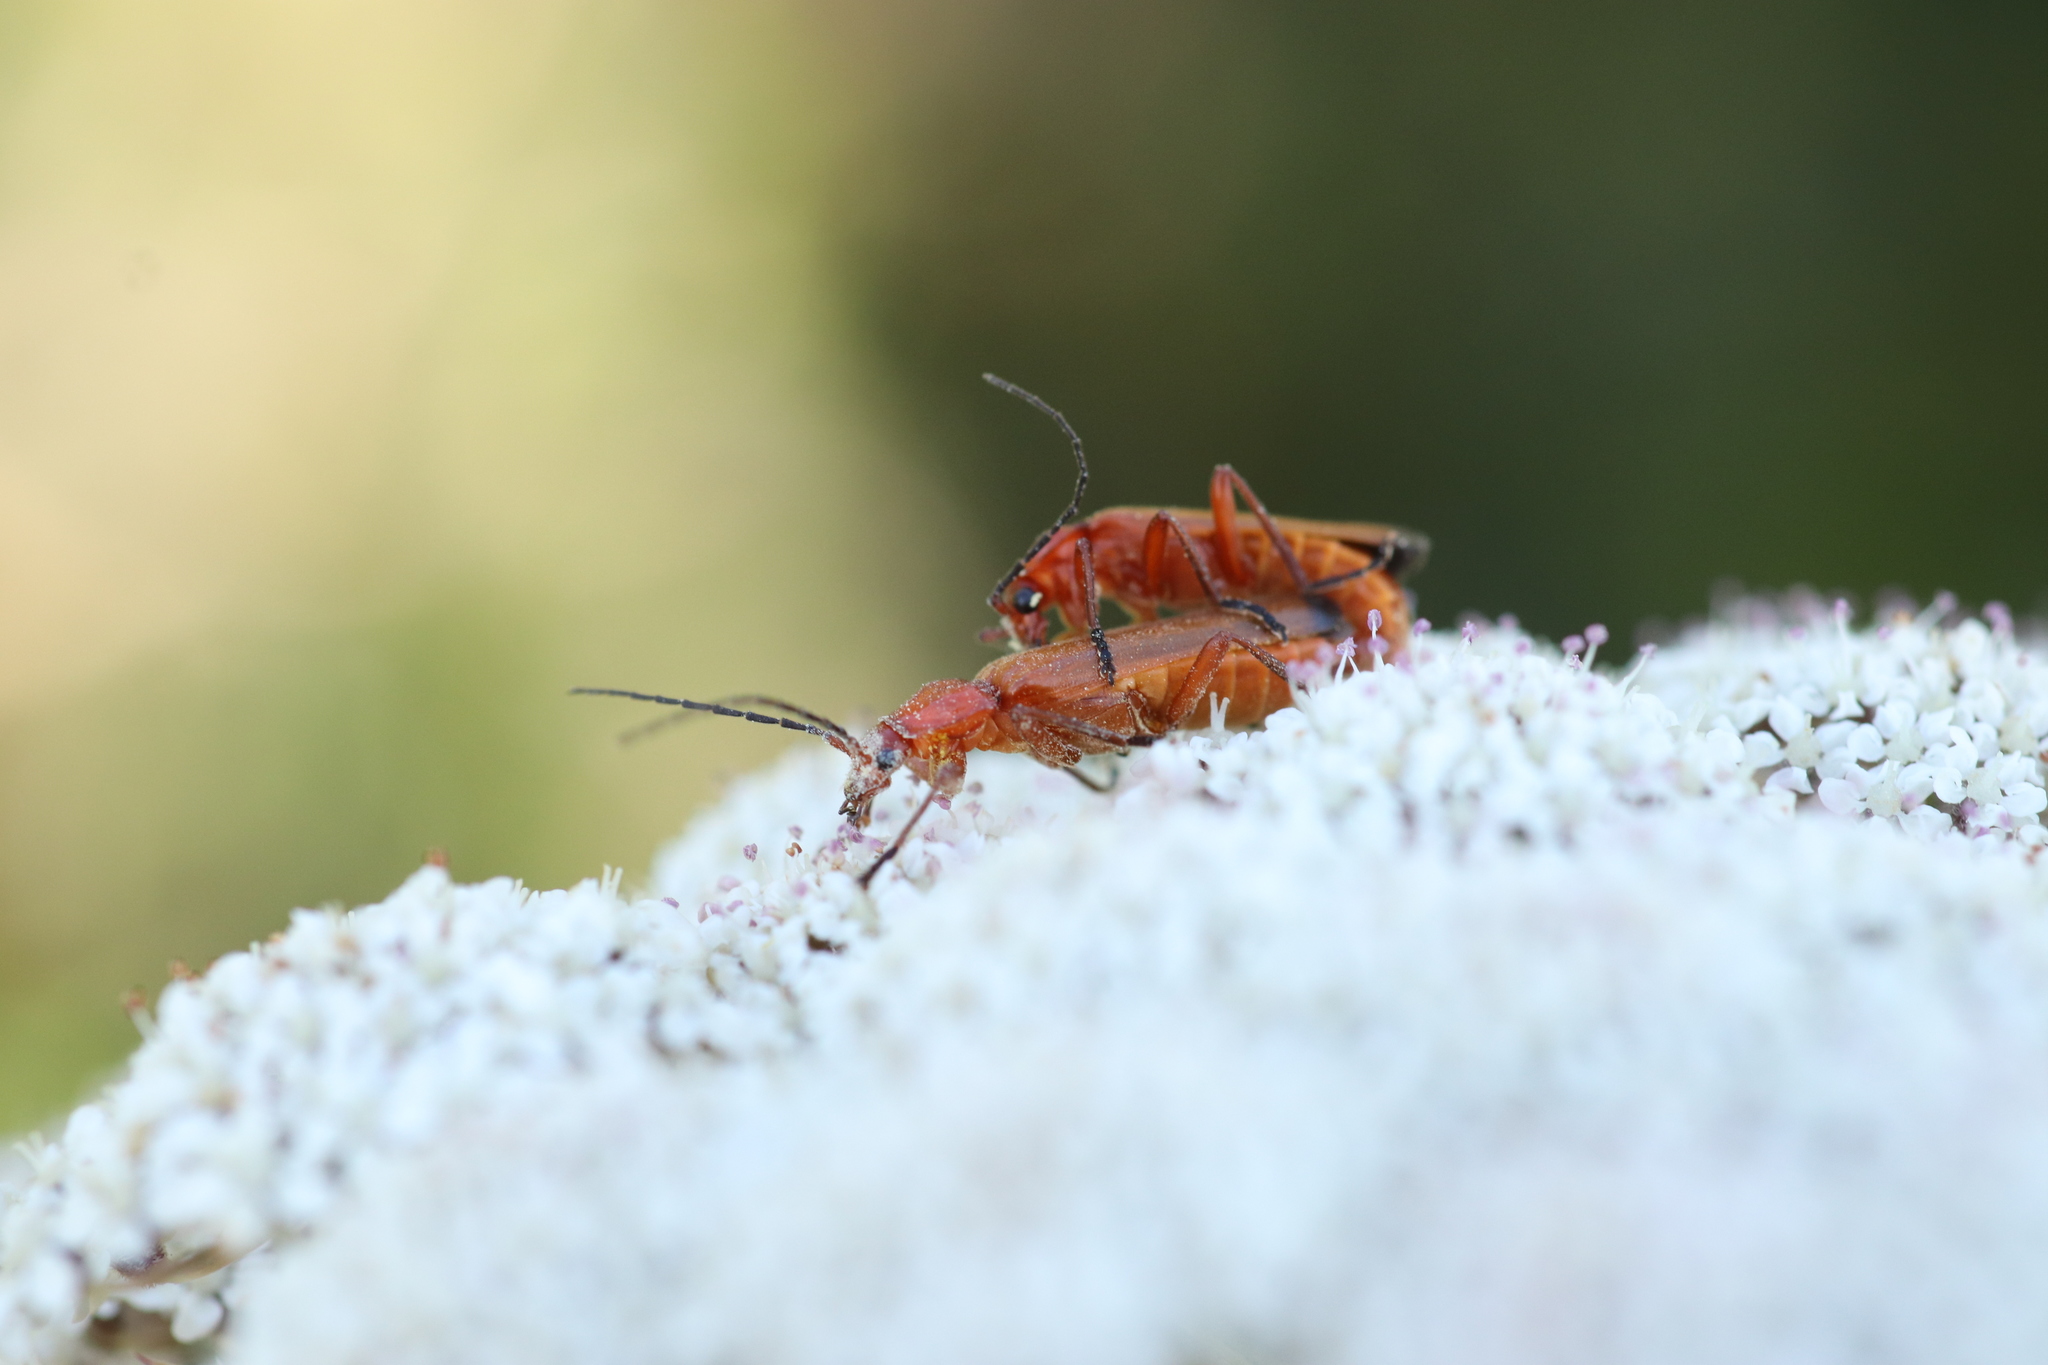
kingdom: Animalia
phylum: Arthropoda
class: Insecta
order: Coleoptera
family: Cantharidae
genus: Rhagonycha
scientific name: Rhagonycha fulva
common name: Common red soldier beetle
